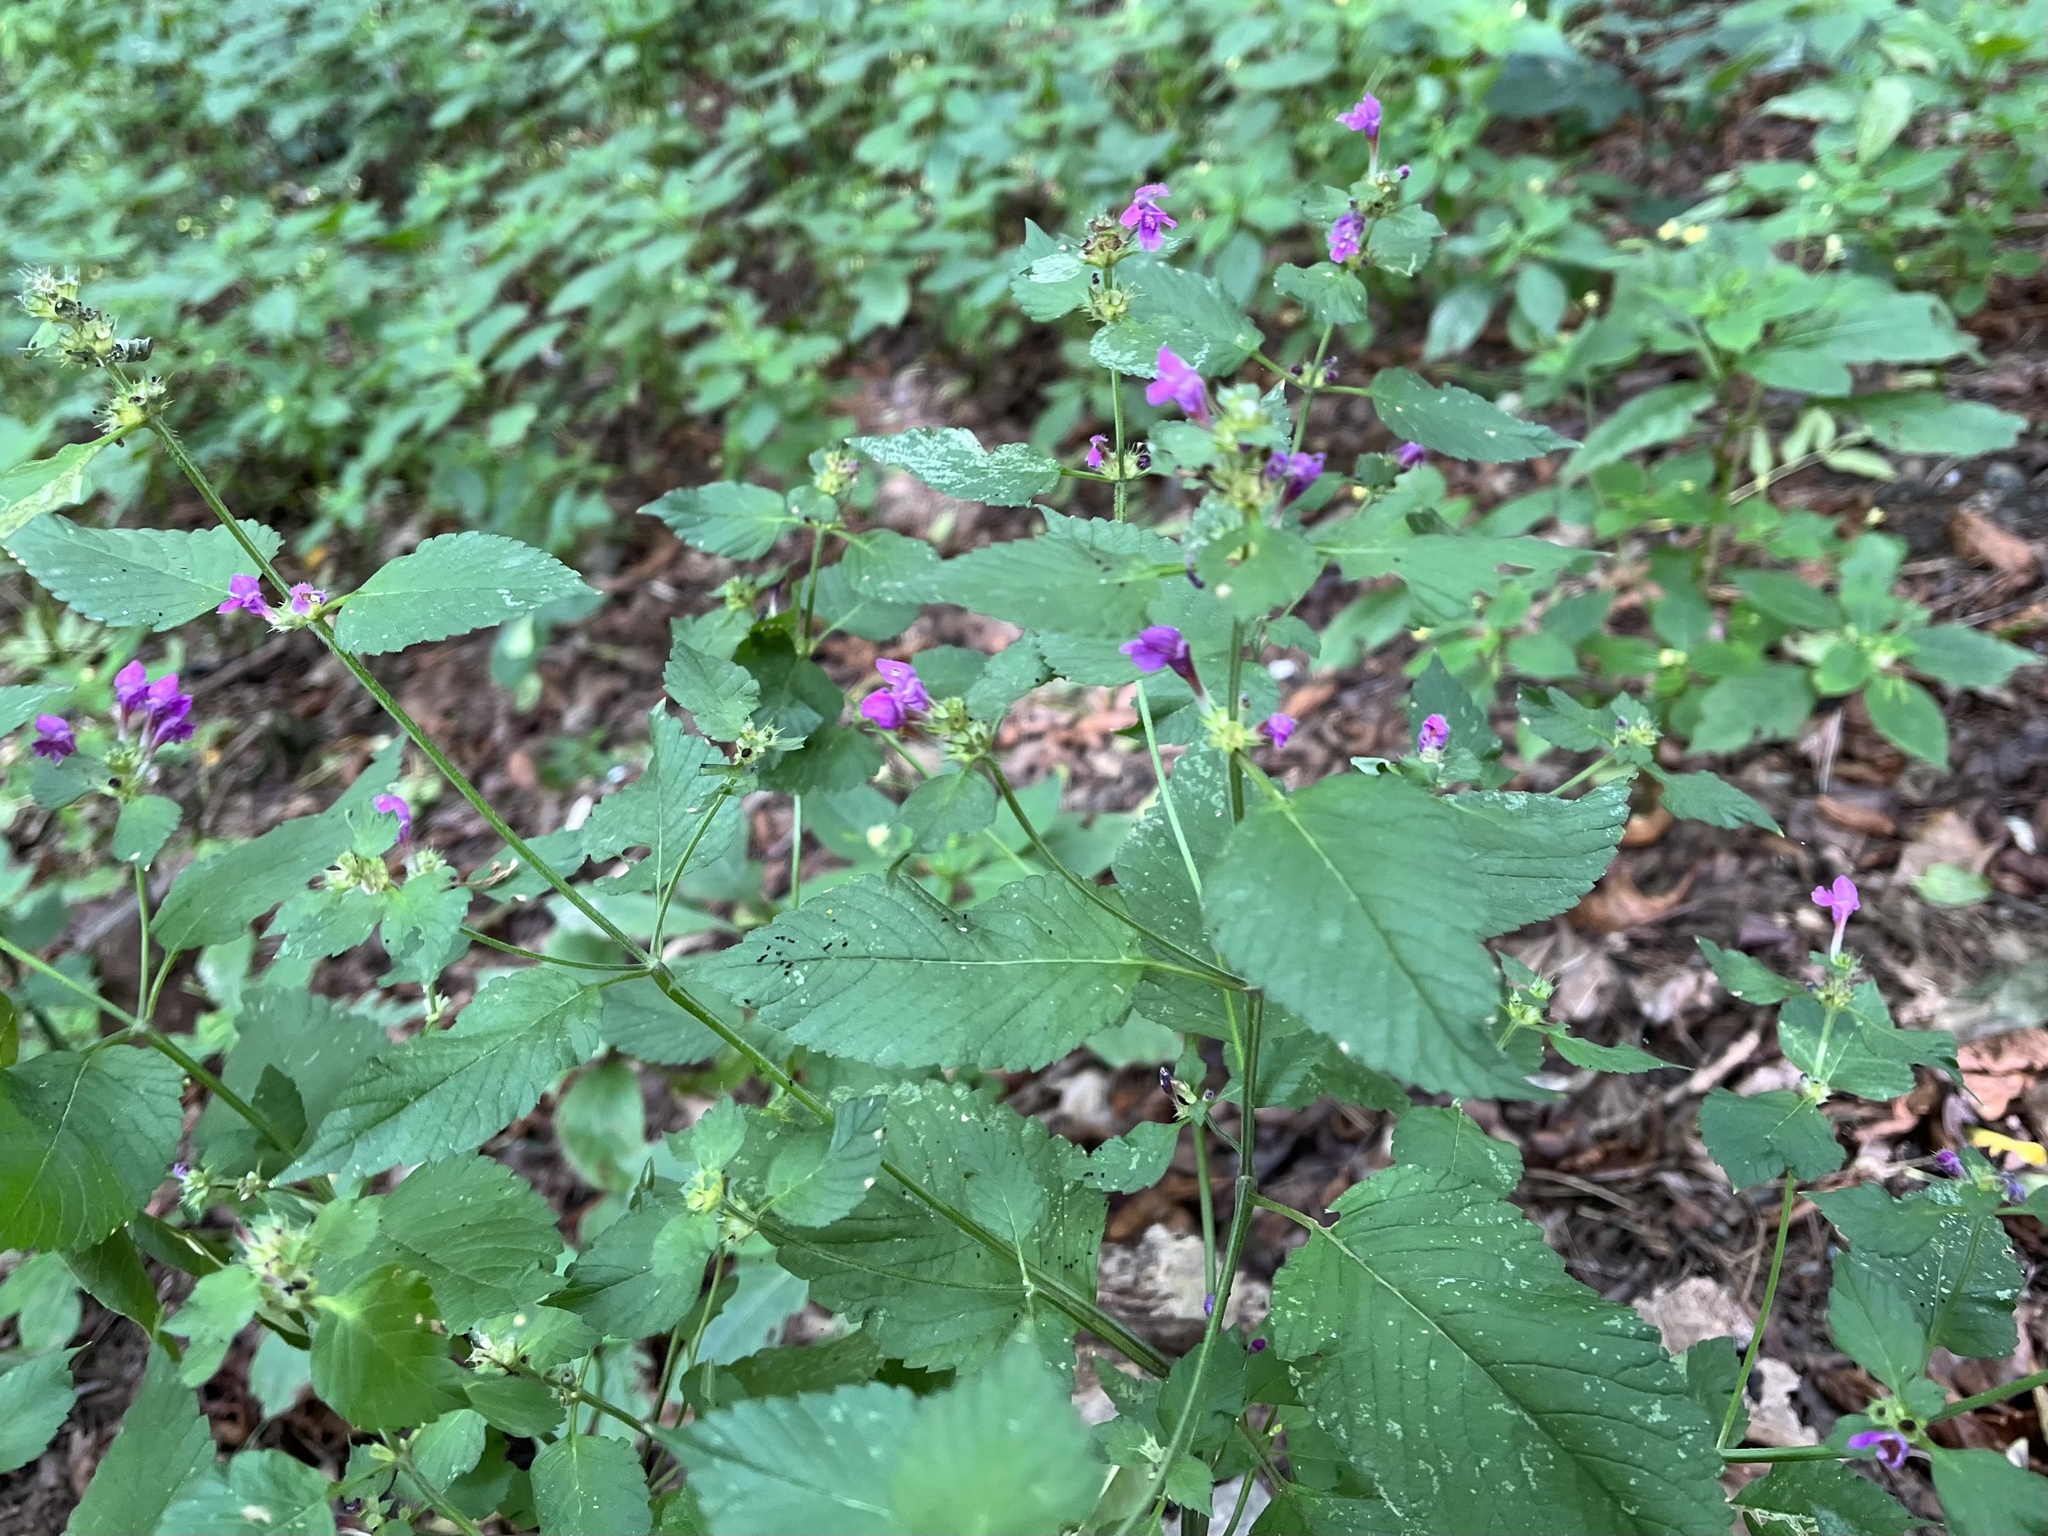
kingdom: Plantae
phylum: Tracheophyta
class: Magnoliopsida
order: Lamiales
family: Lamiaceae
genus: Galeopsis
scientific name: Galeopsis pubescens
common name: Downy hemp-nettle
